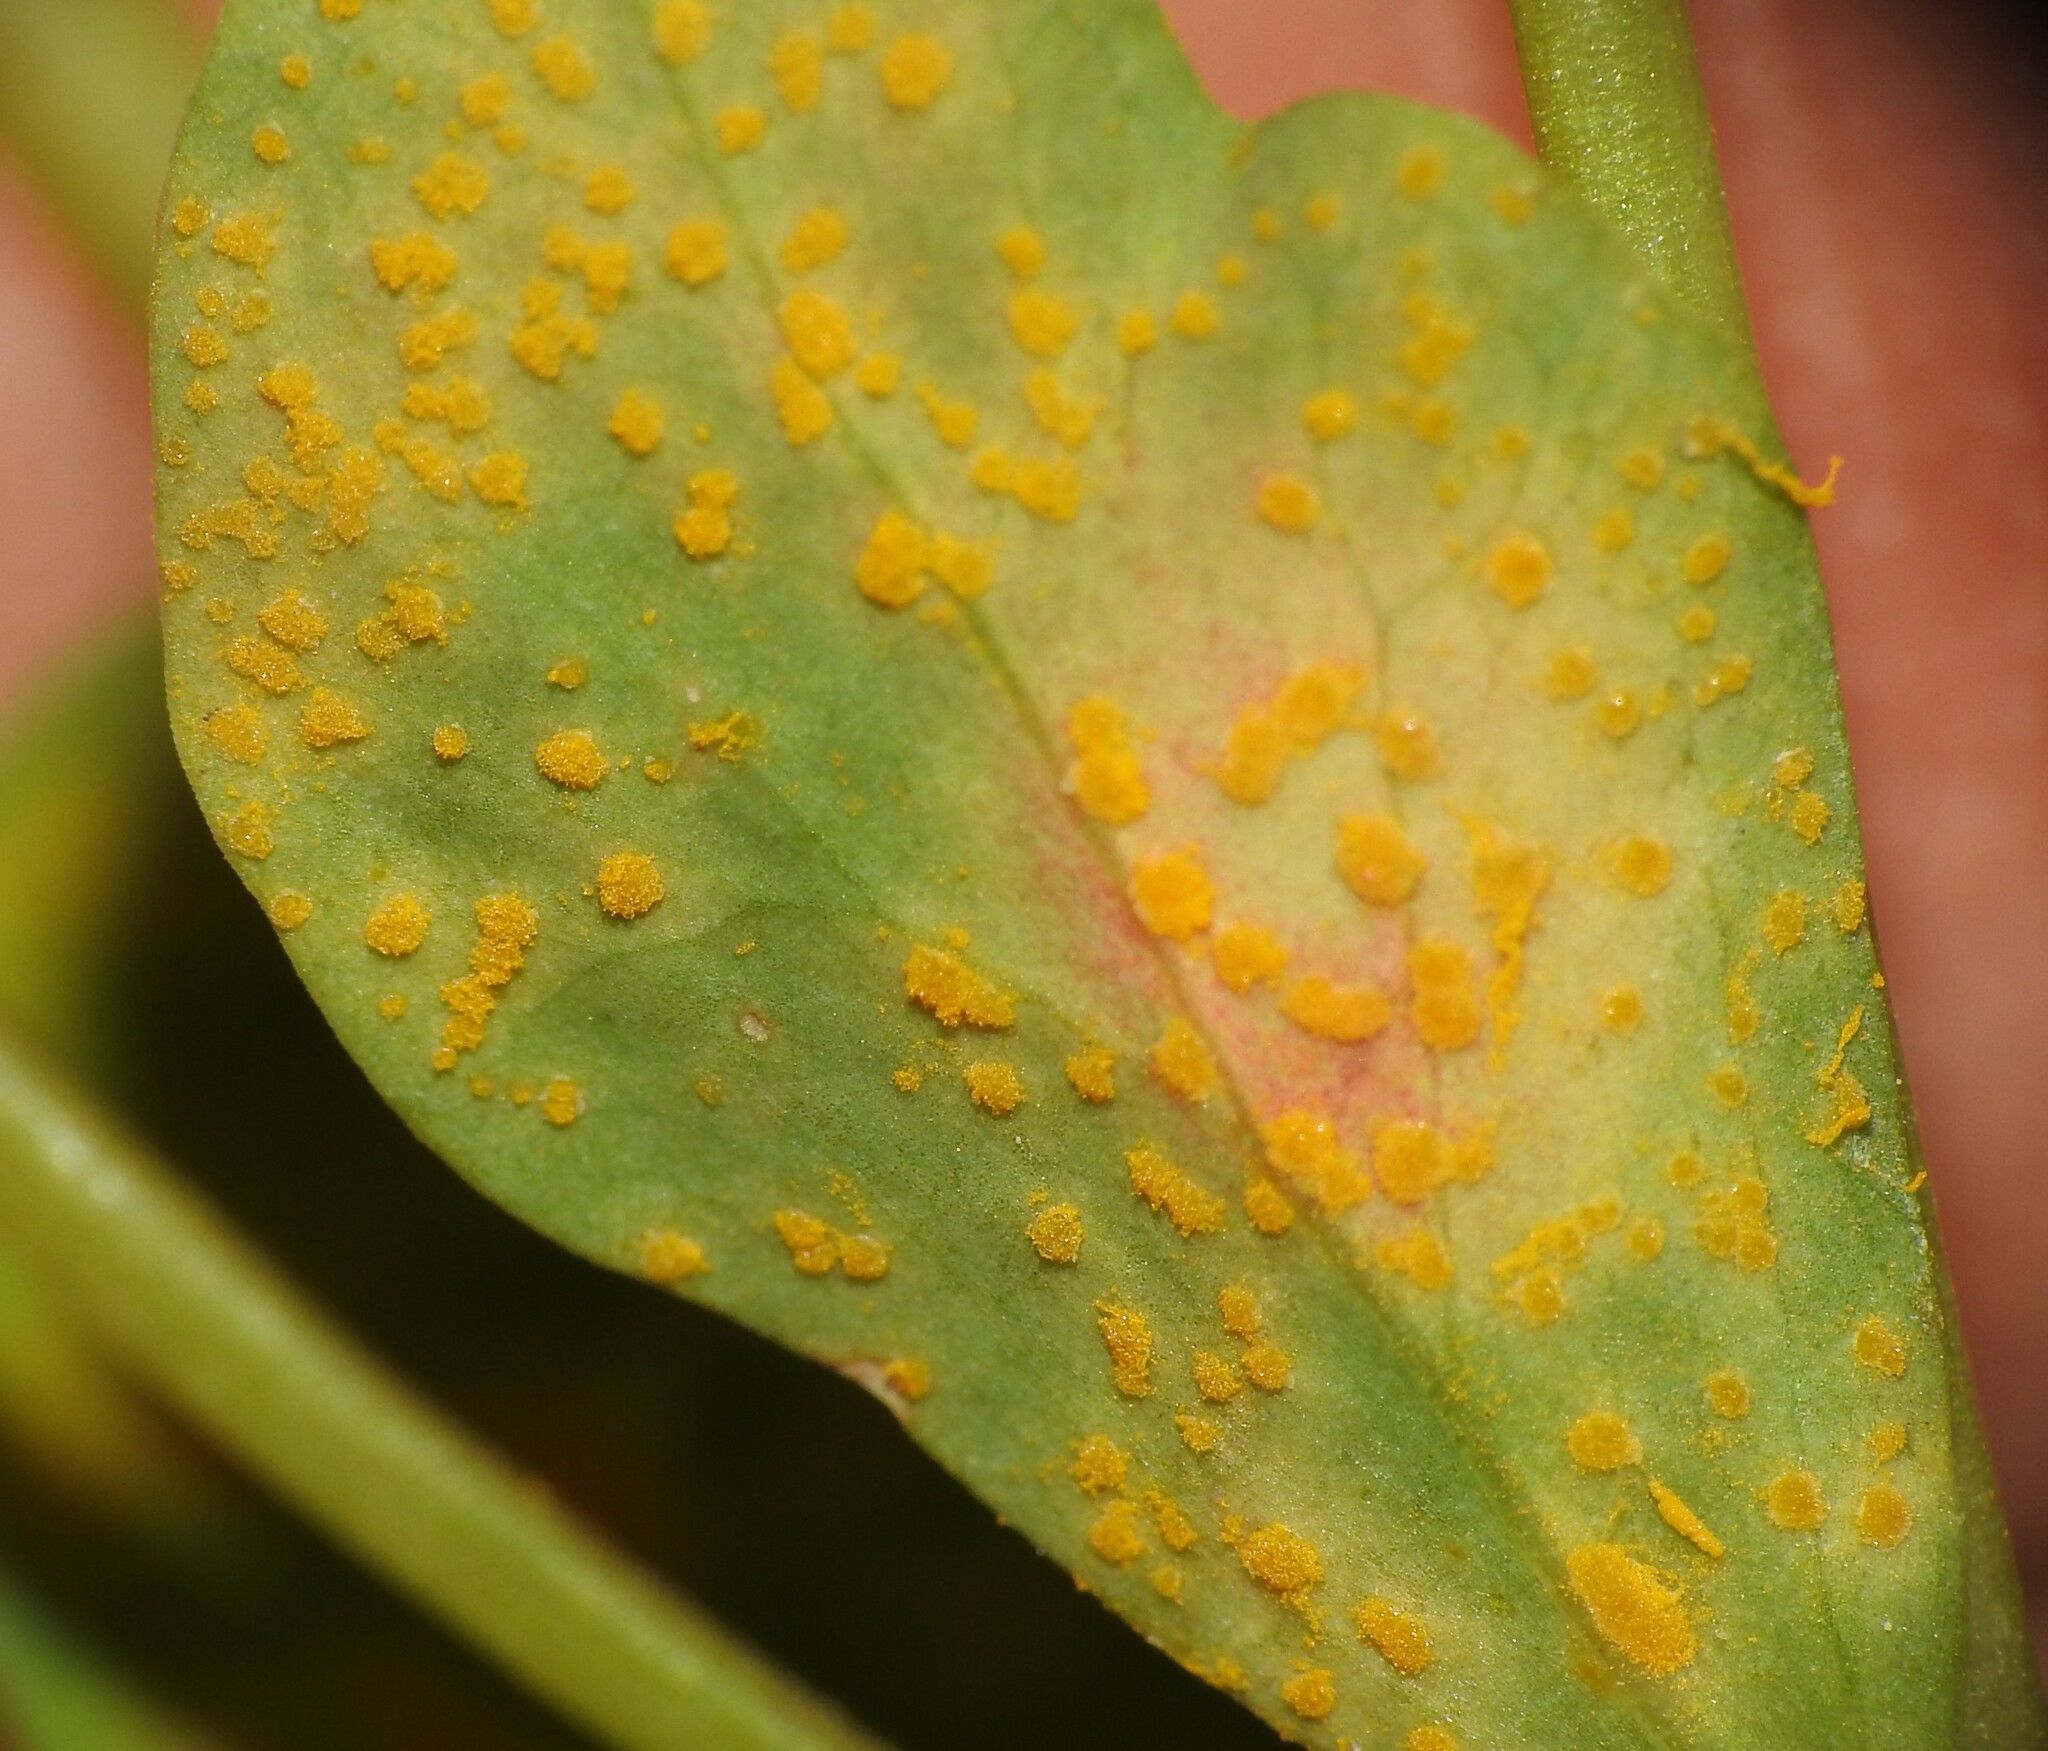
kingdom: Fungi
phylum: Basidiomycota
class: Pucciniomycetes
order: Pucciniales
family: Melampsoraceae
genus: Melampsora
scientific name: Melampsora euphorbiae
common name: Spurge rust
